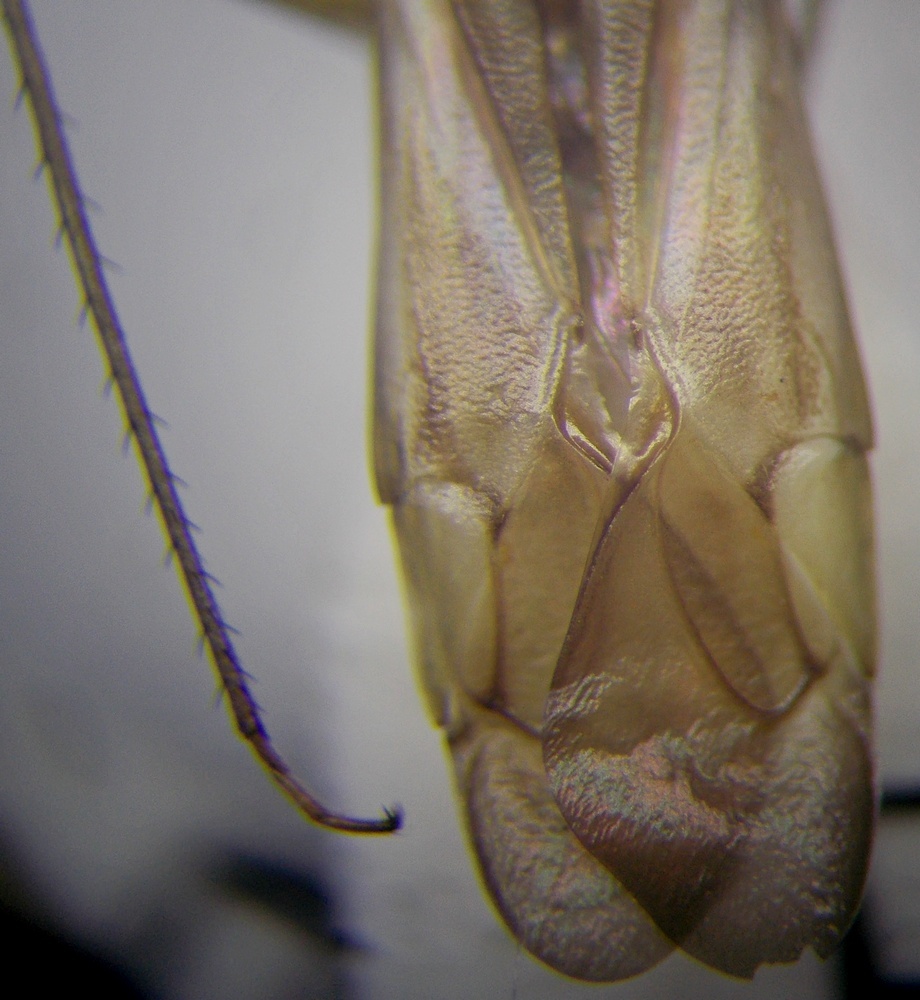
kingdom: Animalia
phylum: Arthropoda
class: Insecta
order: Hemiptera
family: Miridae
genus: Adelphocoris
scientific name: Adelphocoris lineolatus
